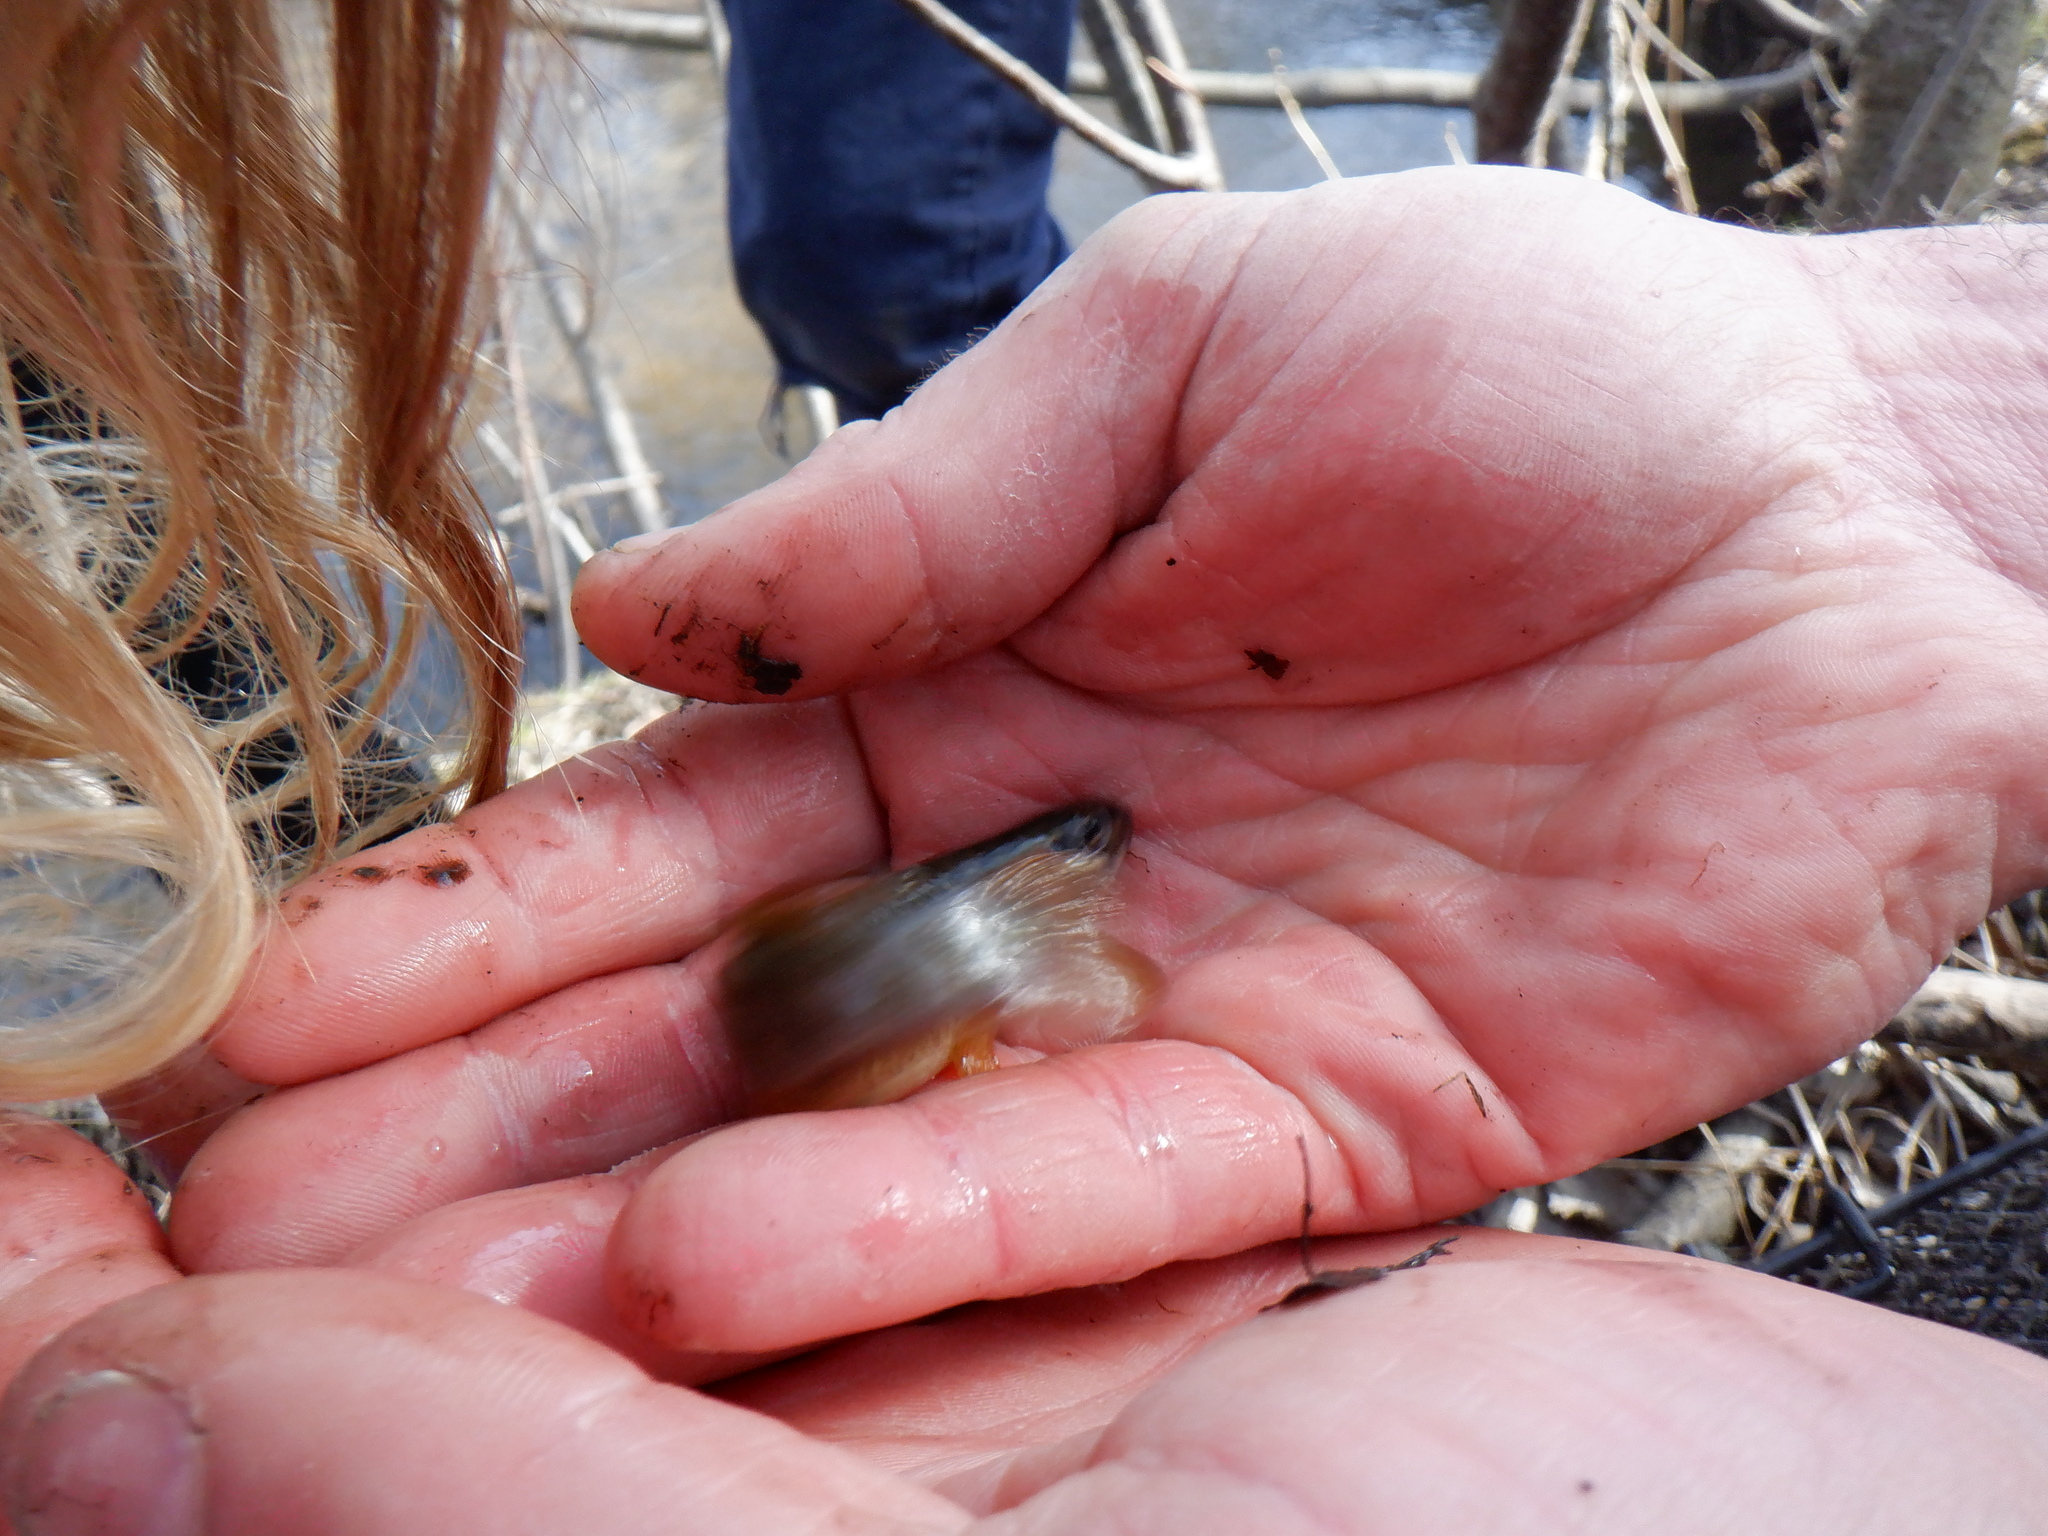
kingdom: Animalia
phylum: Chordata
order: Esociformes
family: Umbridae
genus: Umbra
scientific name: Umbra limi
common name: Central mudminnow
